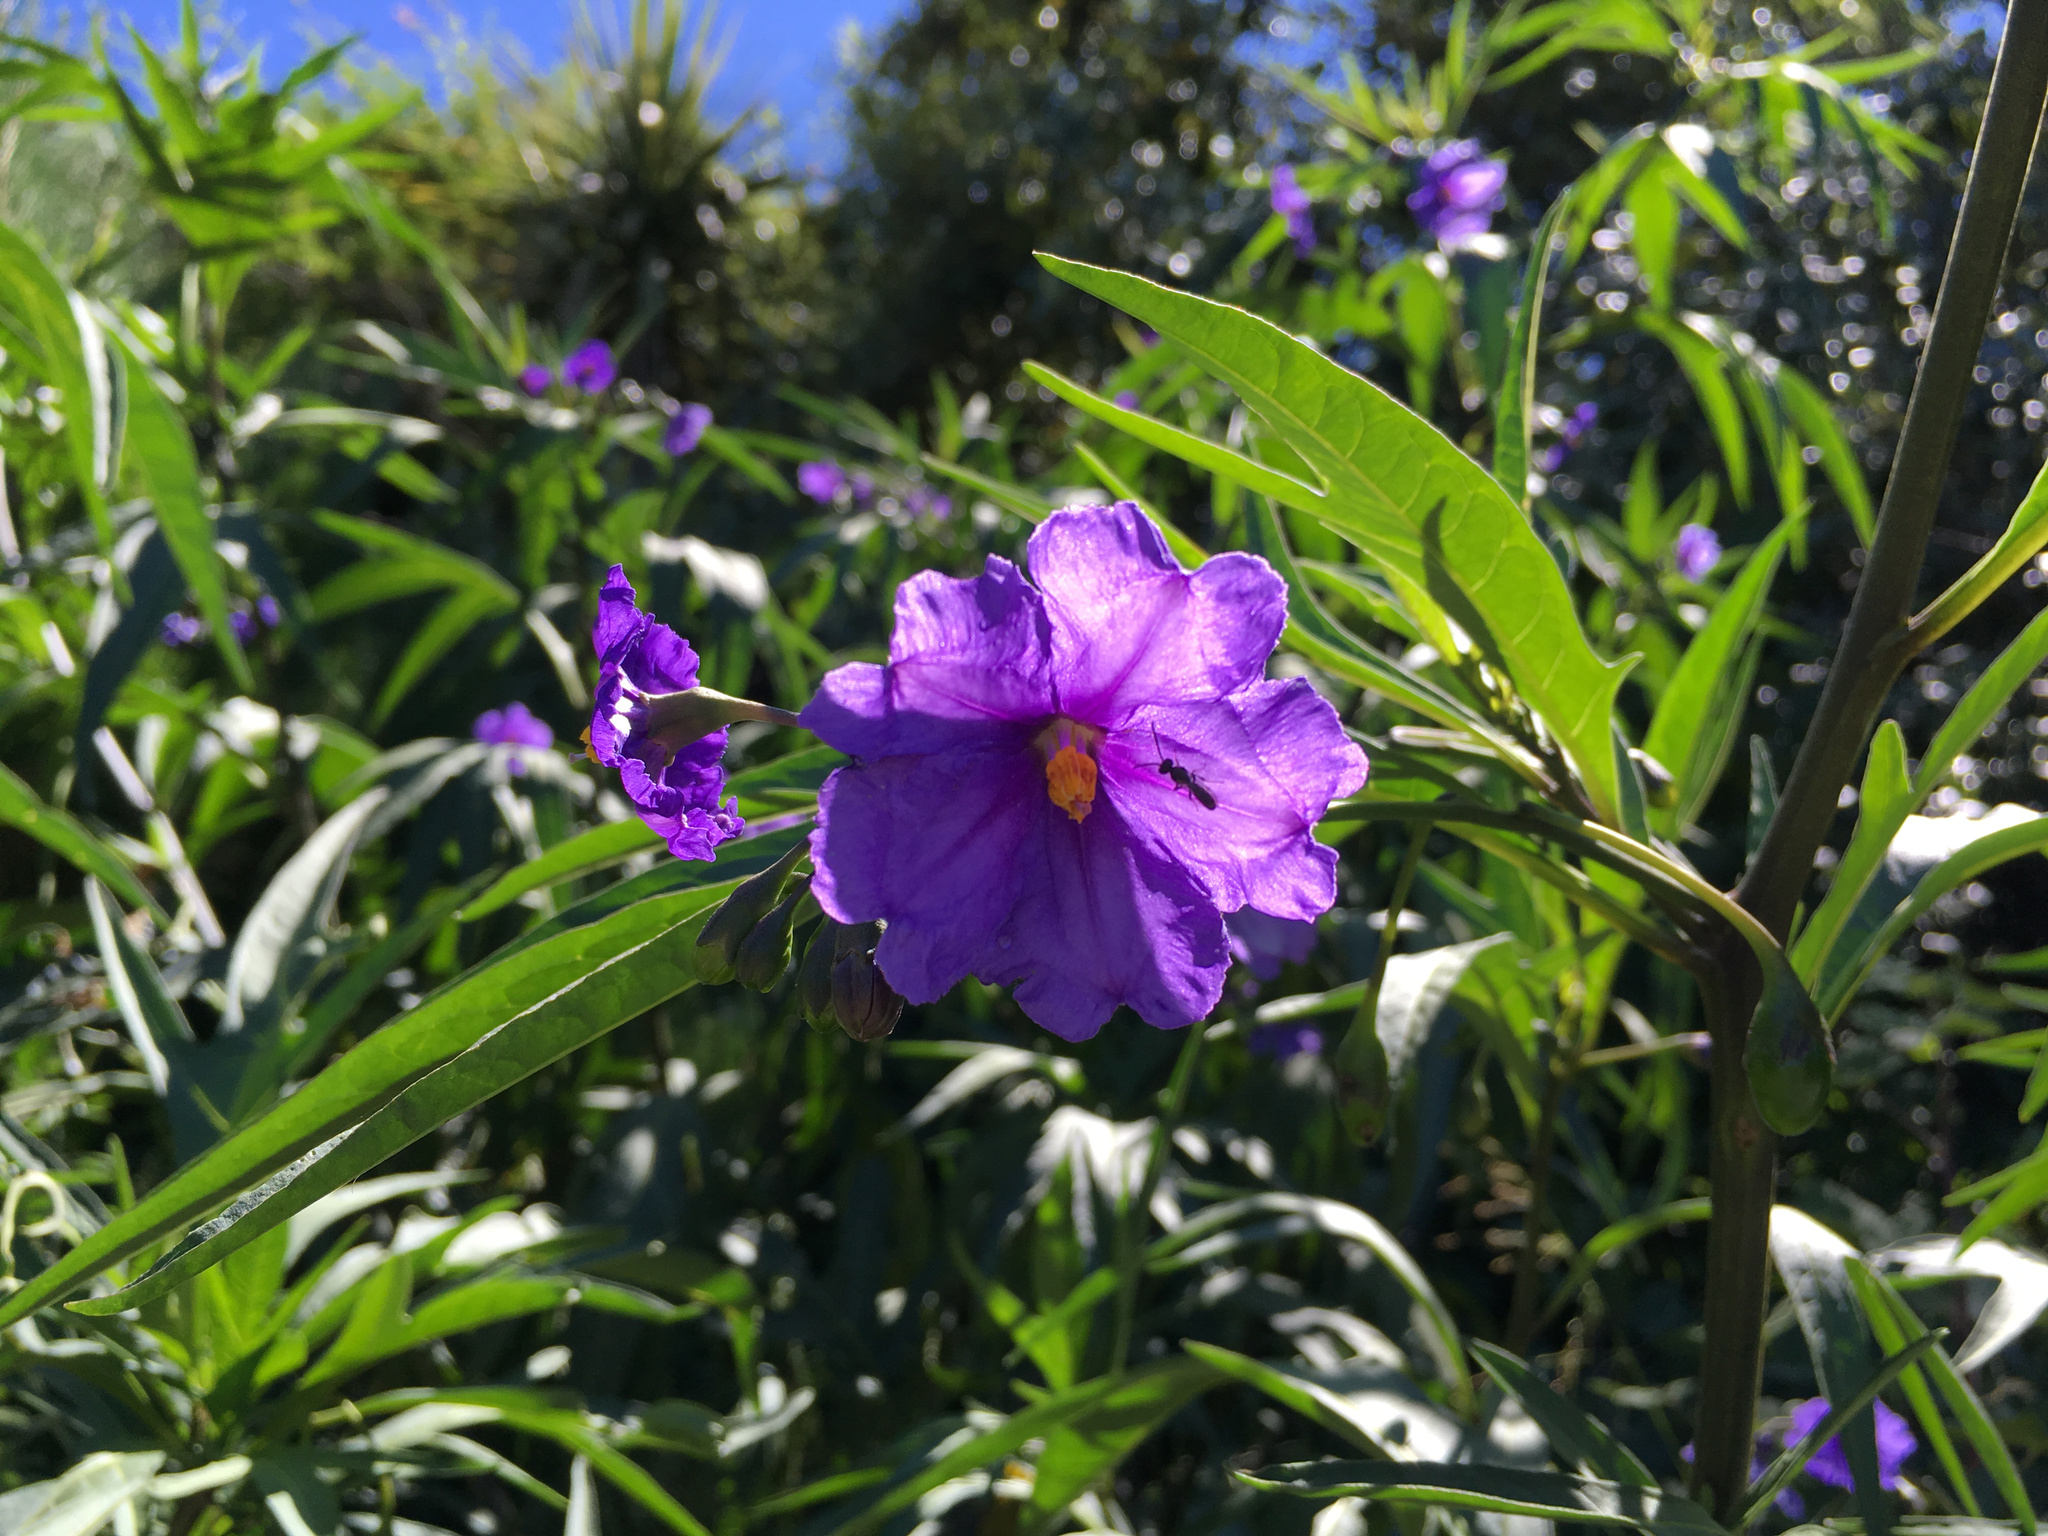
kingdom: Plantae
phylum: Tracheophyta
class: Magnoliopsida
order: Solanales
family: Solanaceae
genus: Solanum
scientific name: Solanum laciniatum
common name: Kangaroo-apple
